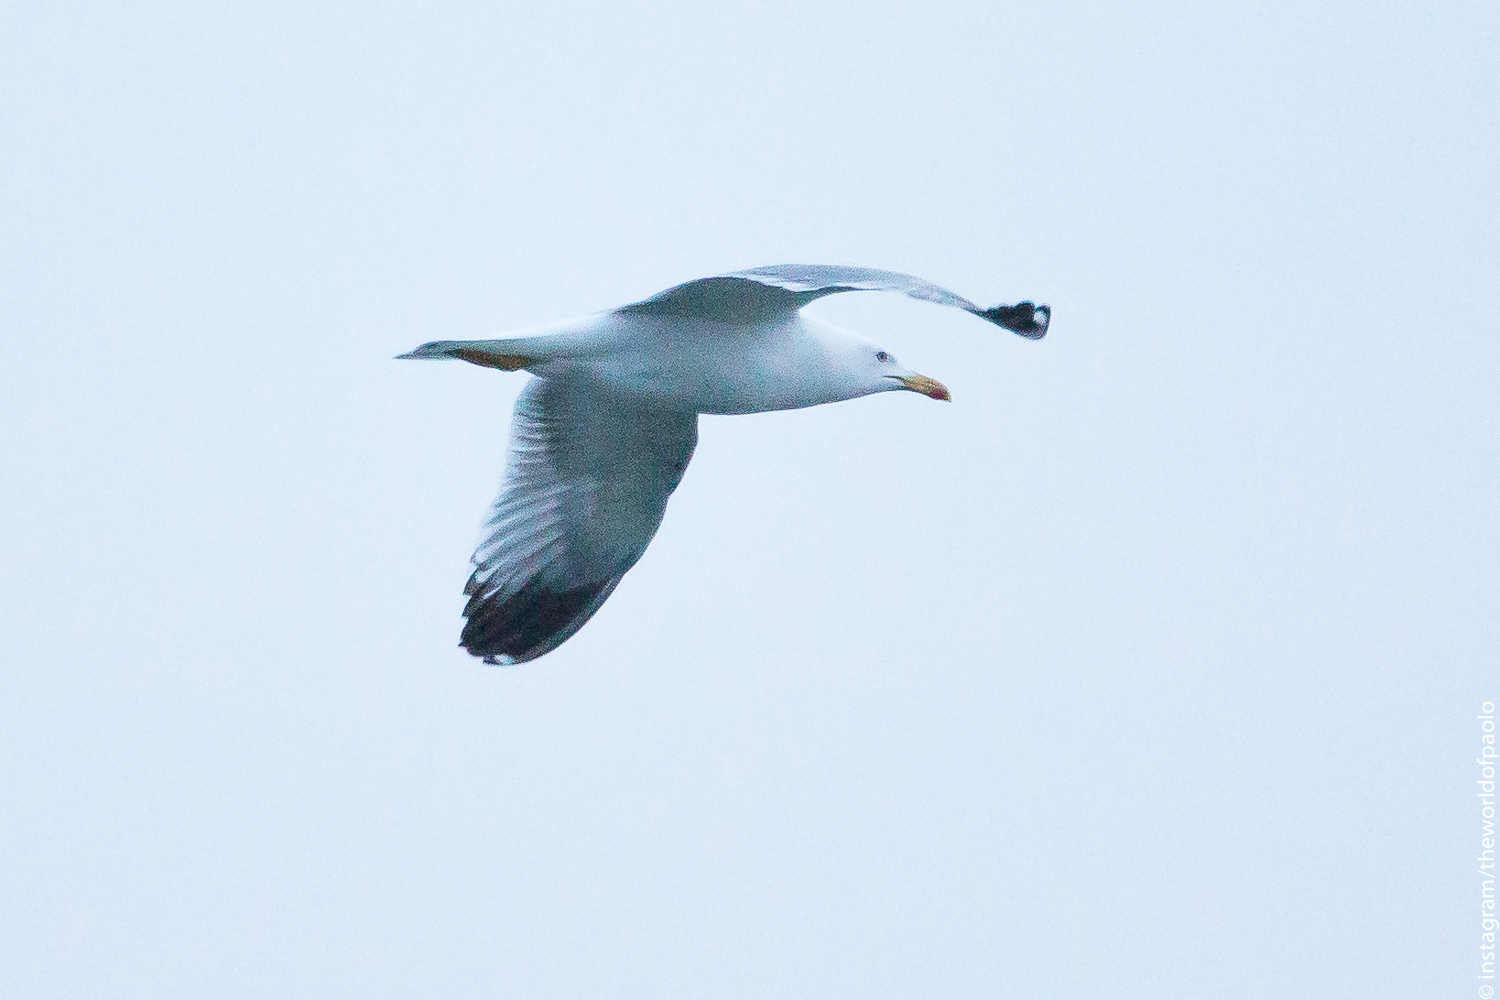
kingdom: Animalia
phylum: Chordata
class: Aves
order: Charadriiformes
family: Laridae
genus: Larus
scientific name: Larus michahellis
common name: Yellow-legged gull
